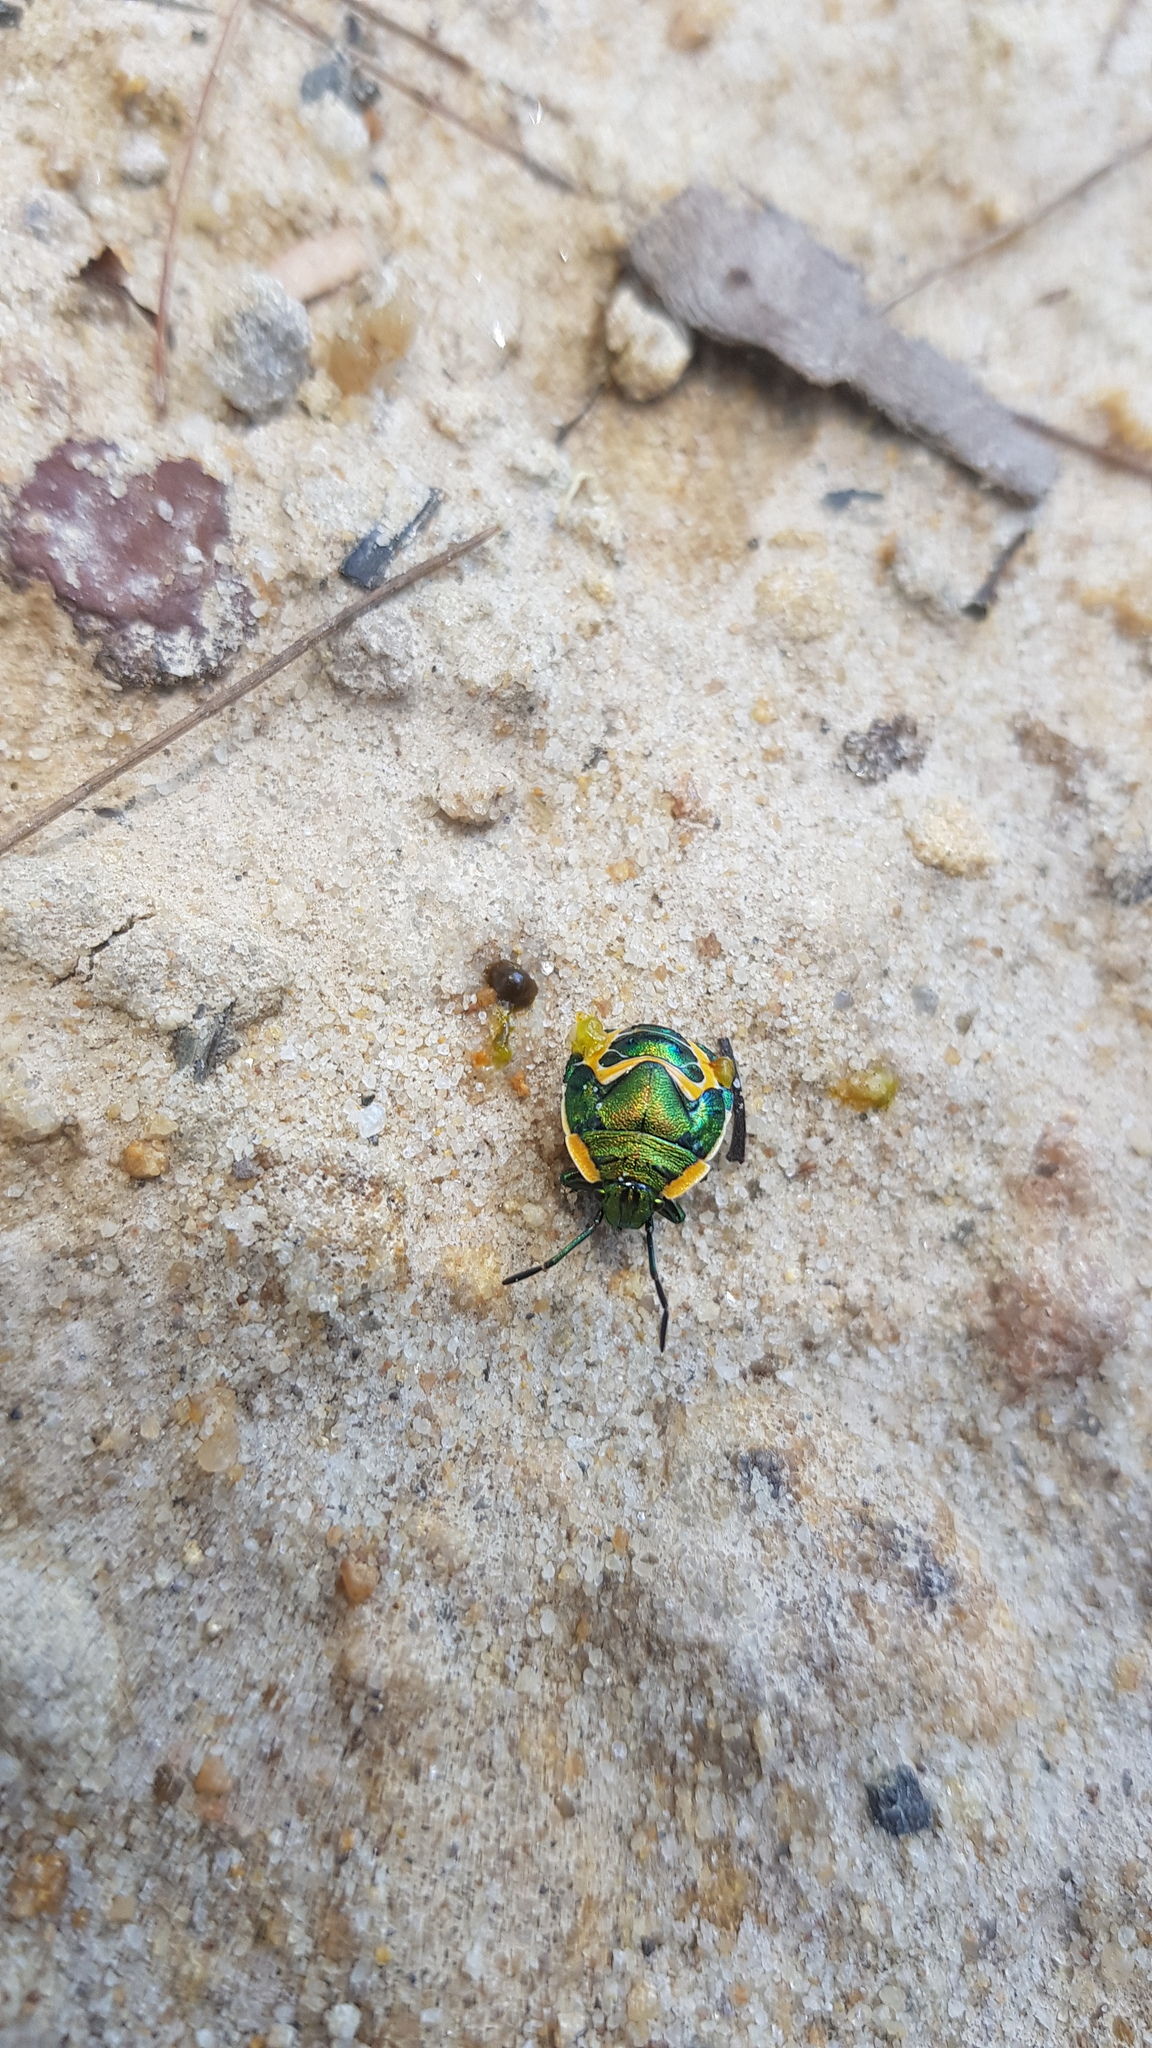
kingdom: Animalia
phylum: Arthropoda
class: Insecta
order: Hemiptera
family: Scutelleridae
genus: Scutiphora
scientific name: Scutiphora pedicellata
